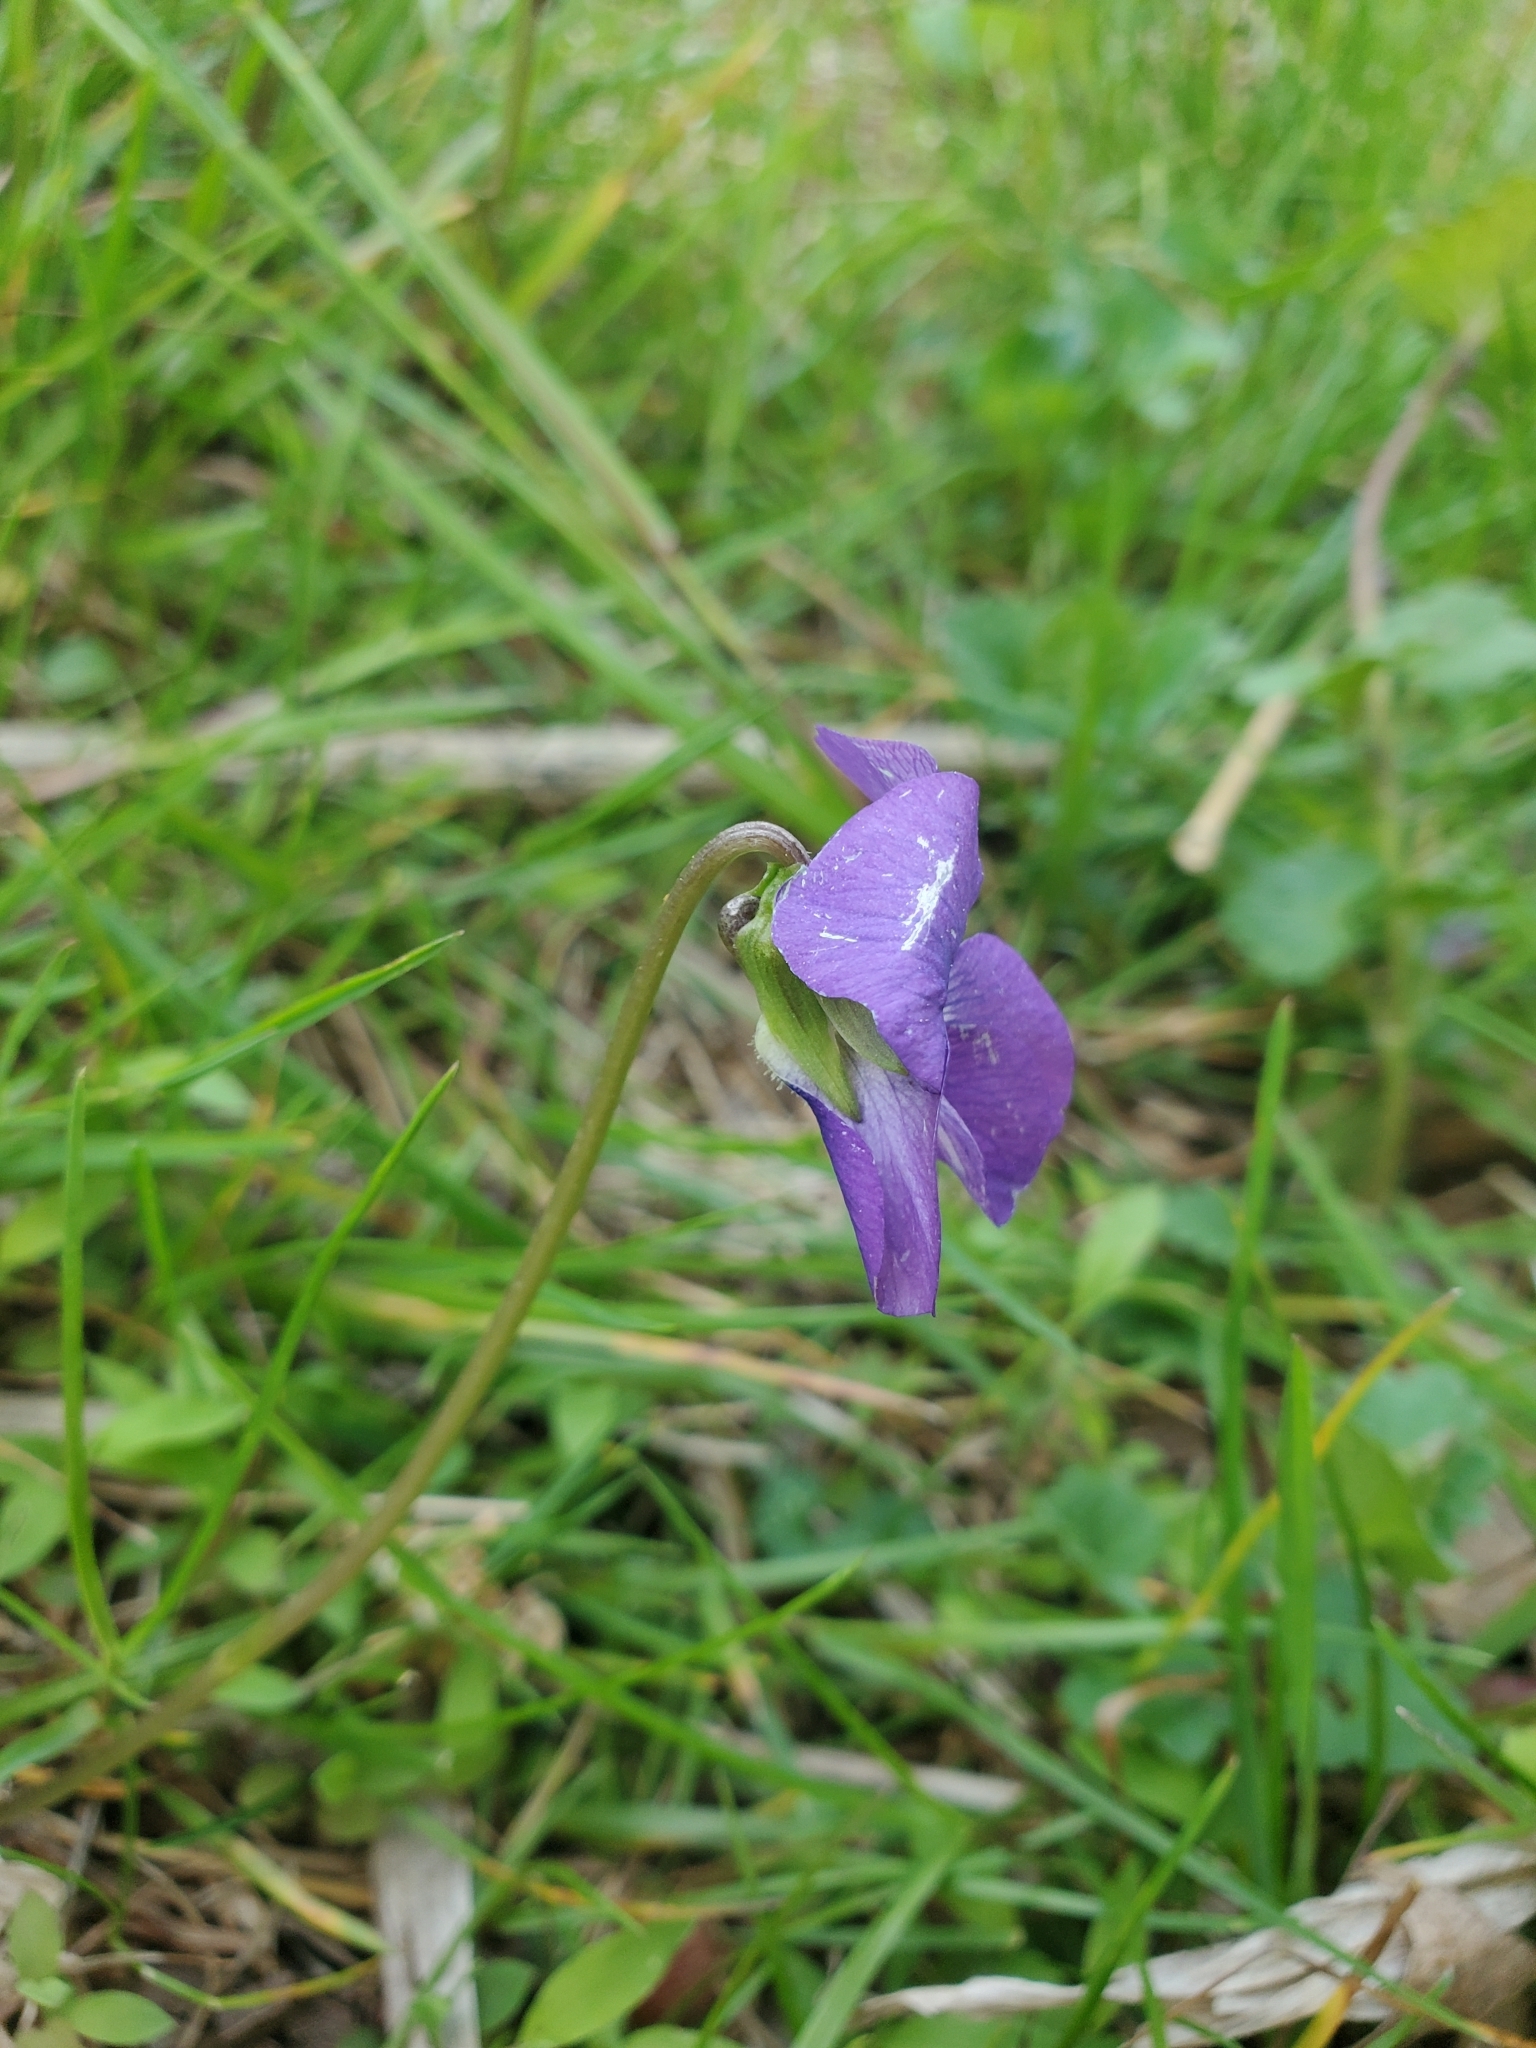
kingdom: Plantae
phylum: Tracheophyta
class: Magnoliopsida
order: Malpighiales
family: Violaceae
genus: Viola
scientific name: Viola sororia
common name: Dooryard violet
